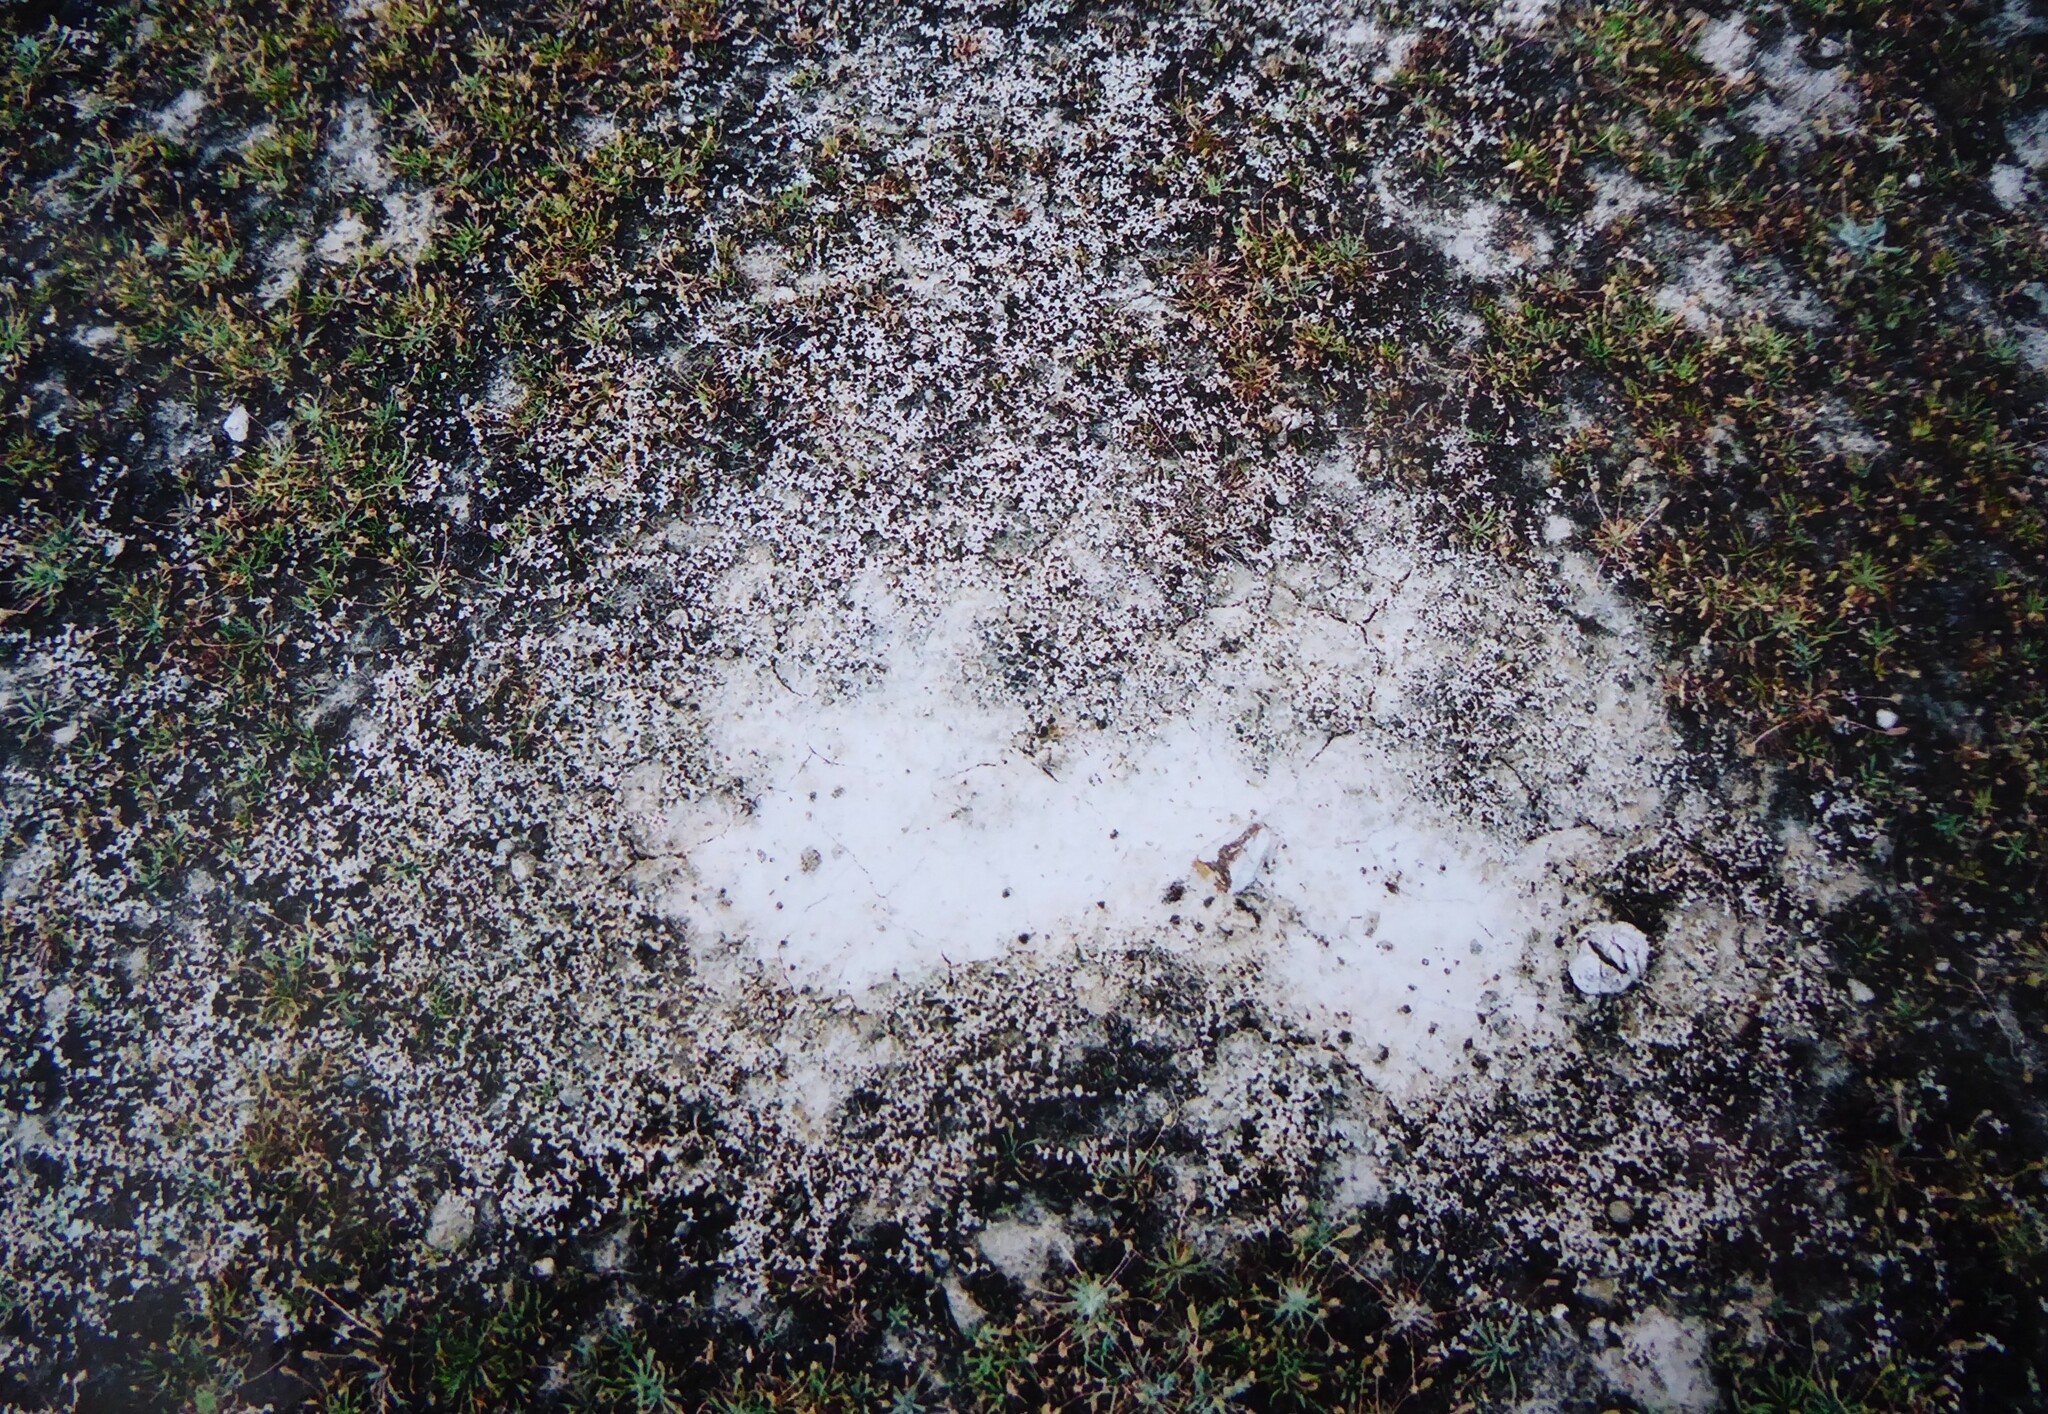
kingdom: Plantae
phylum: Tracheophyta
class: Magnoliopsida
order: Caryophyllales
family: Amaranthaceae
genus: Atriplex
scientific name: Atriplex buchananii
